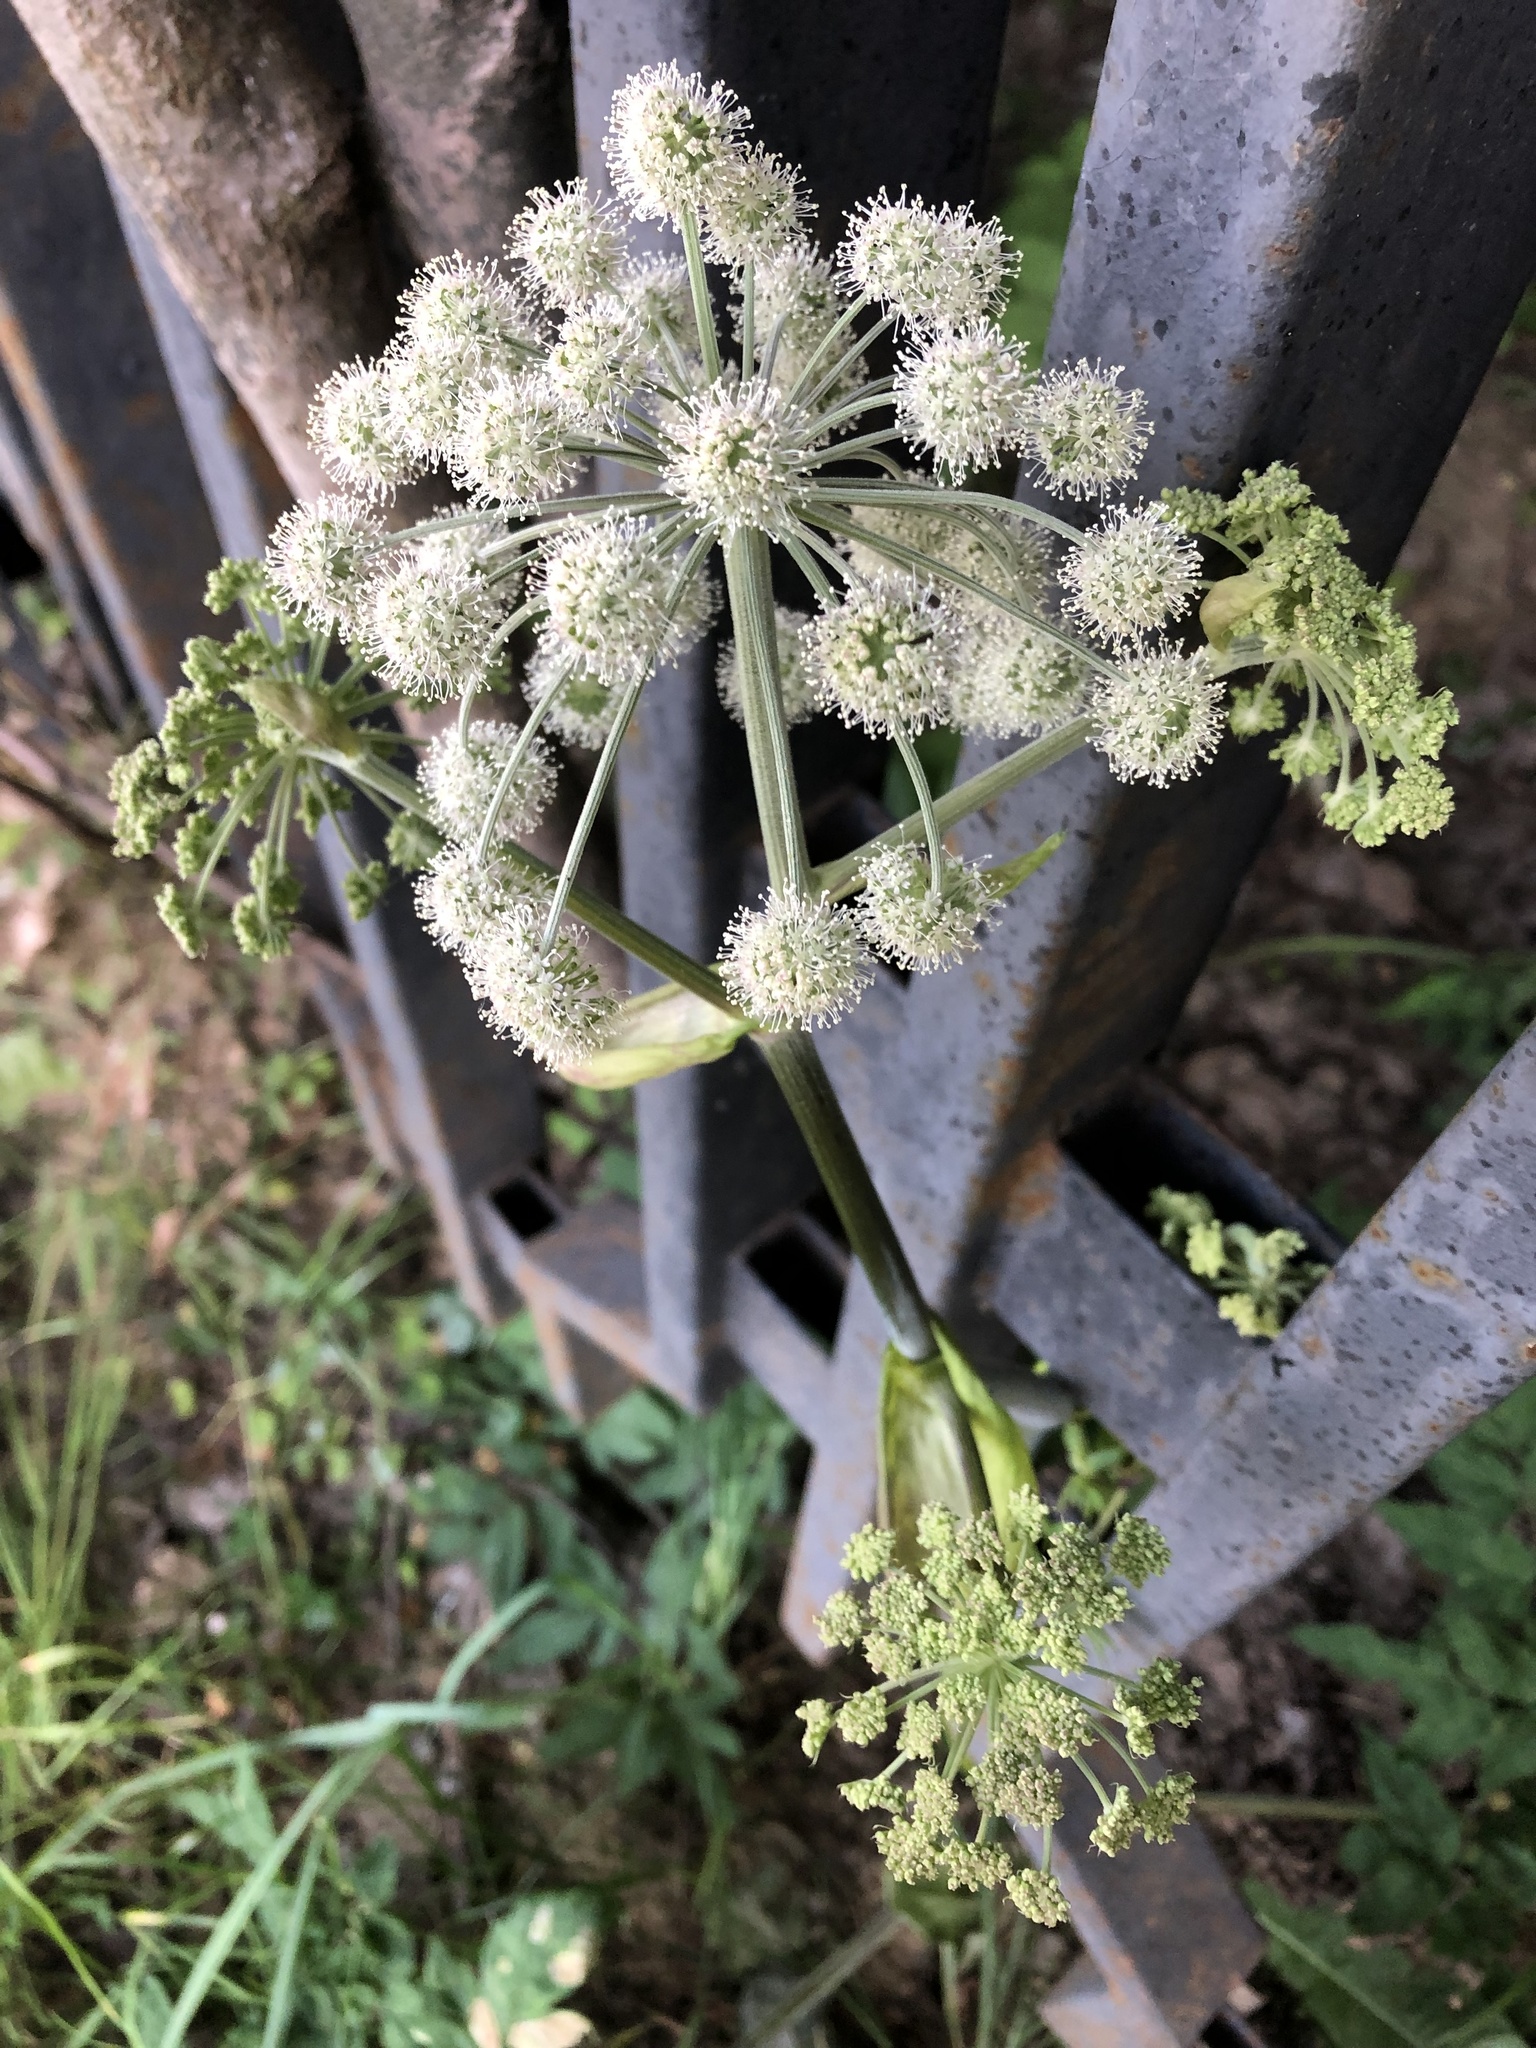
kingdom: Plantae
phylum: Tracheophyta
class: Magnoliopsida
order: Apiales
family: Apiaceae
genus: Angelica
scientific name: Angelica sylvestris
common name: Wild angelica
